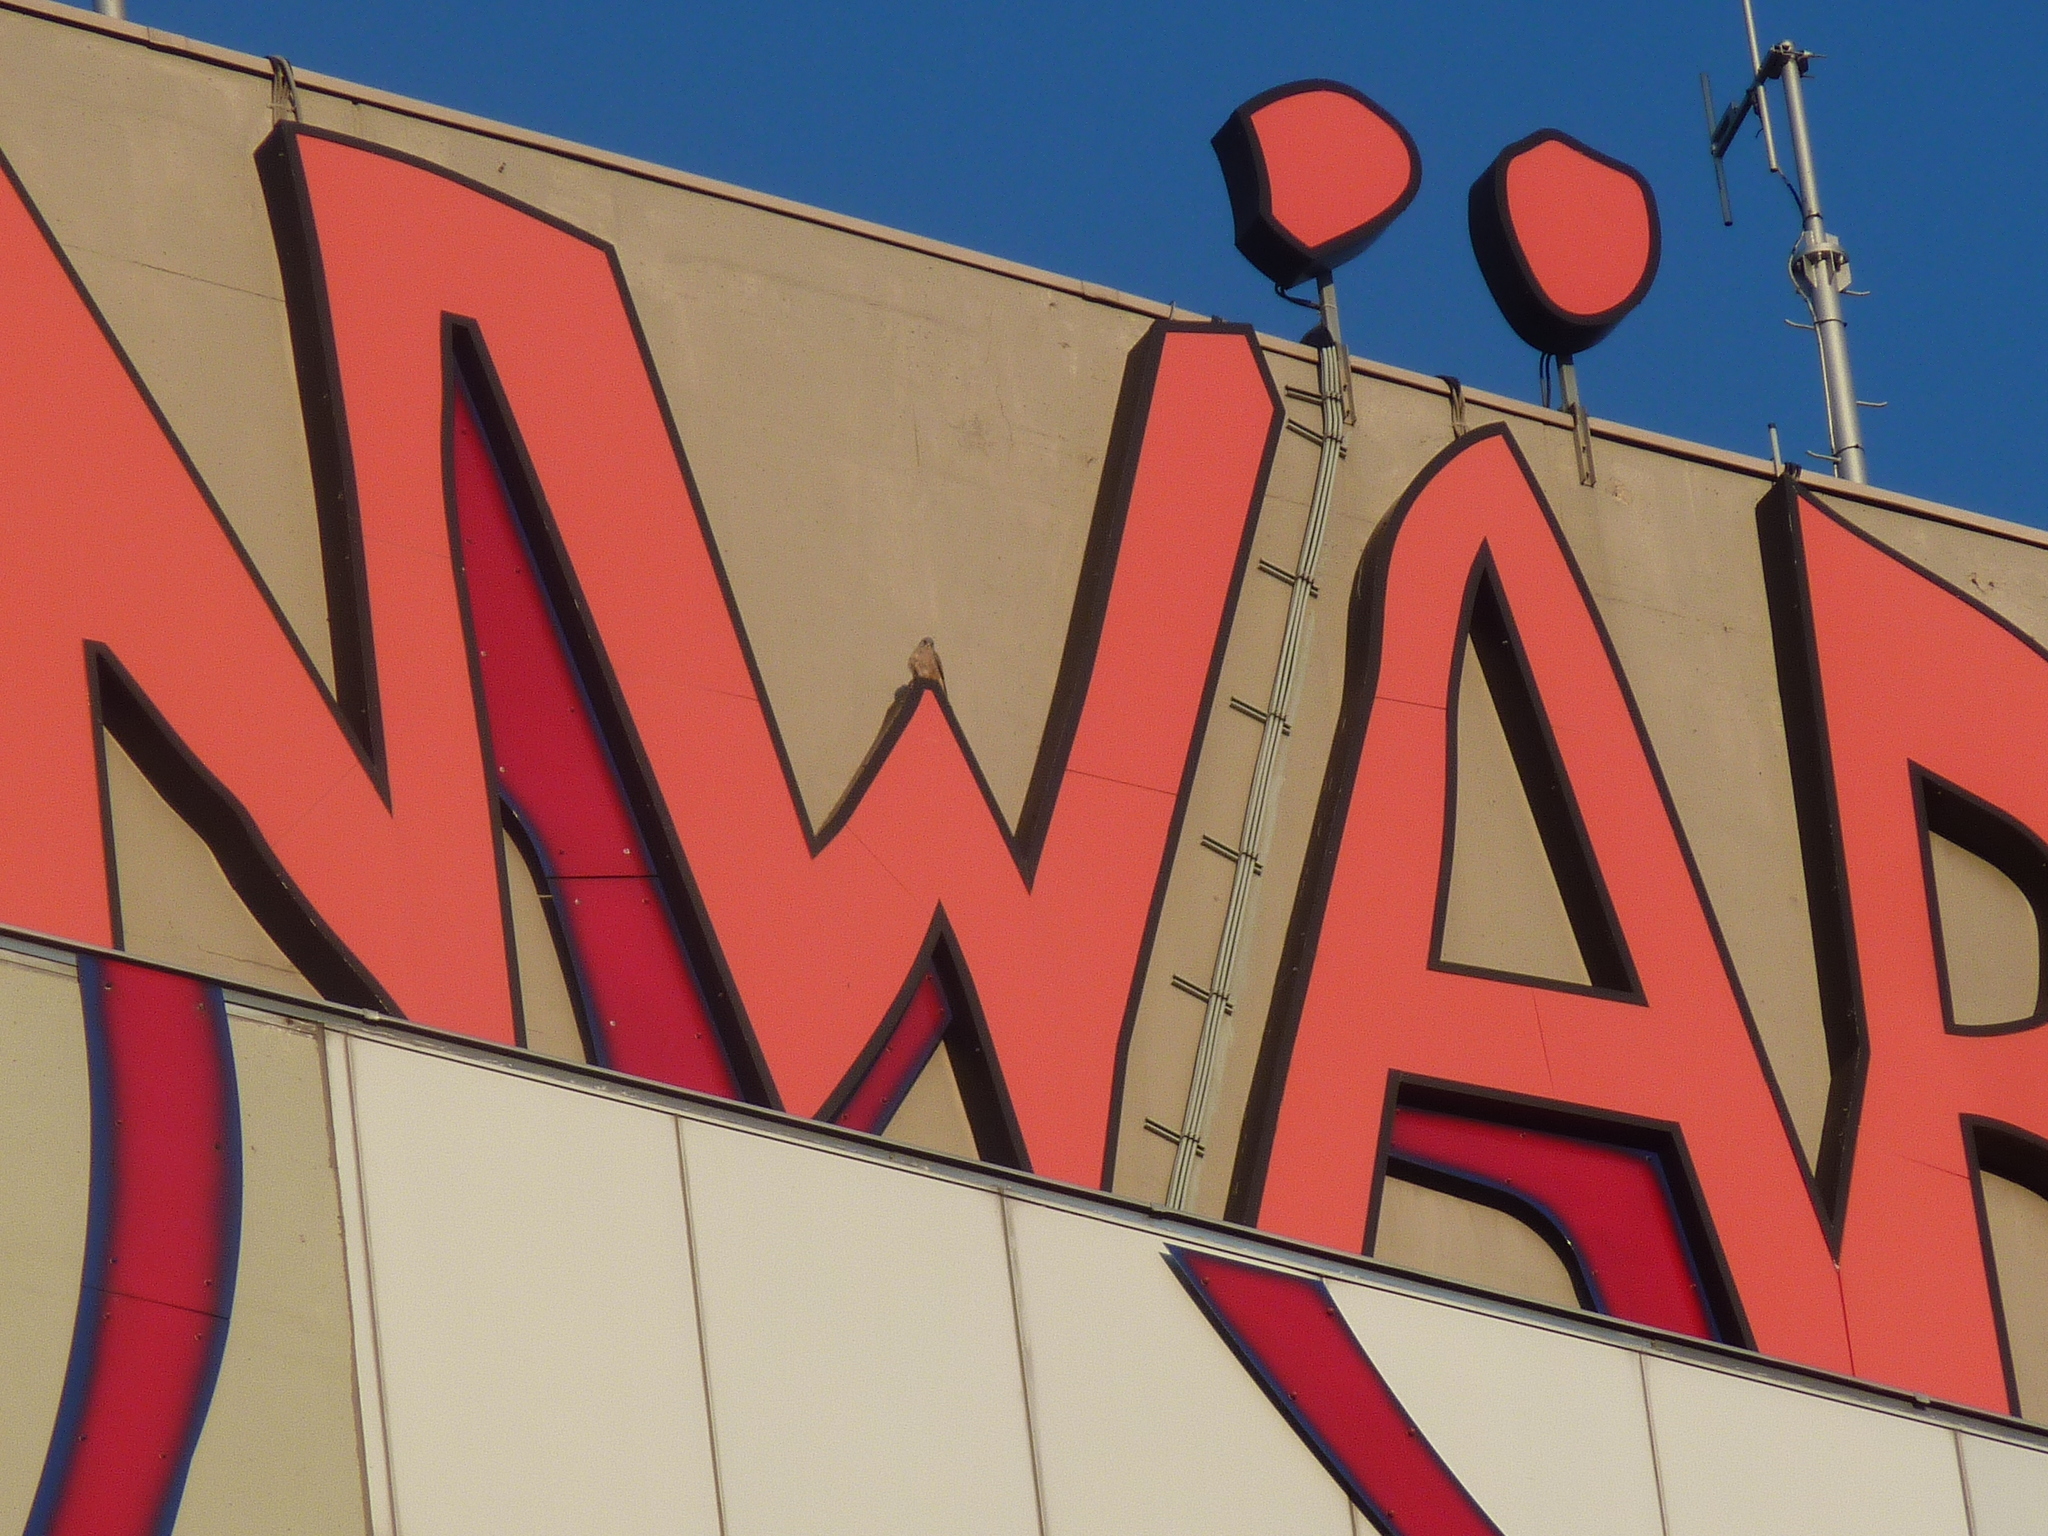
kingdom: Animalia
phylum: Chordata
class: Aves
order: Falconiformes
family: Falconidae
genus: Falco
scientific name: Falco tinnunculus
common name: Common kestrel
